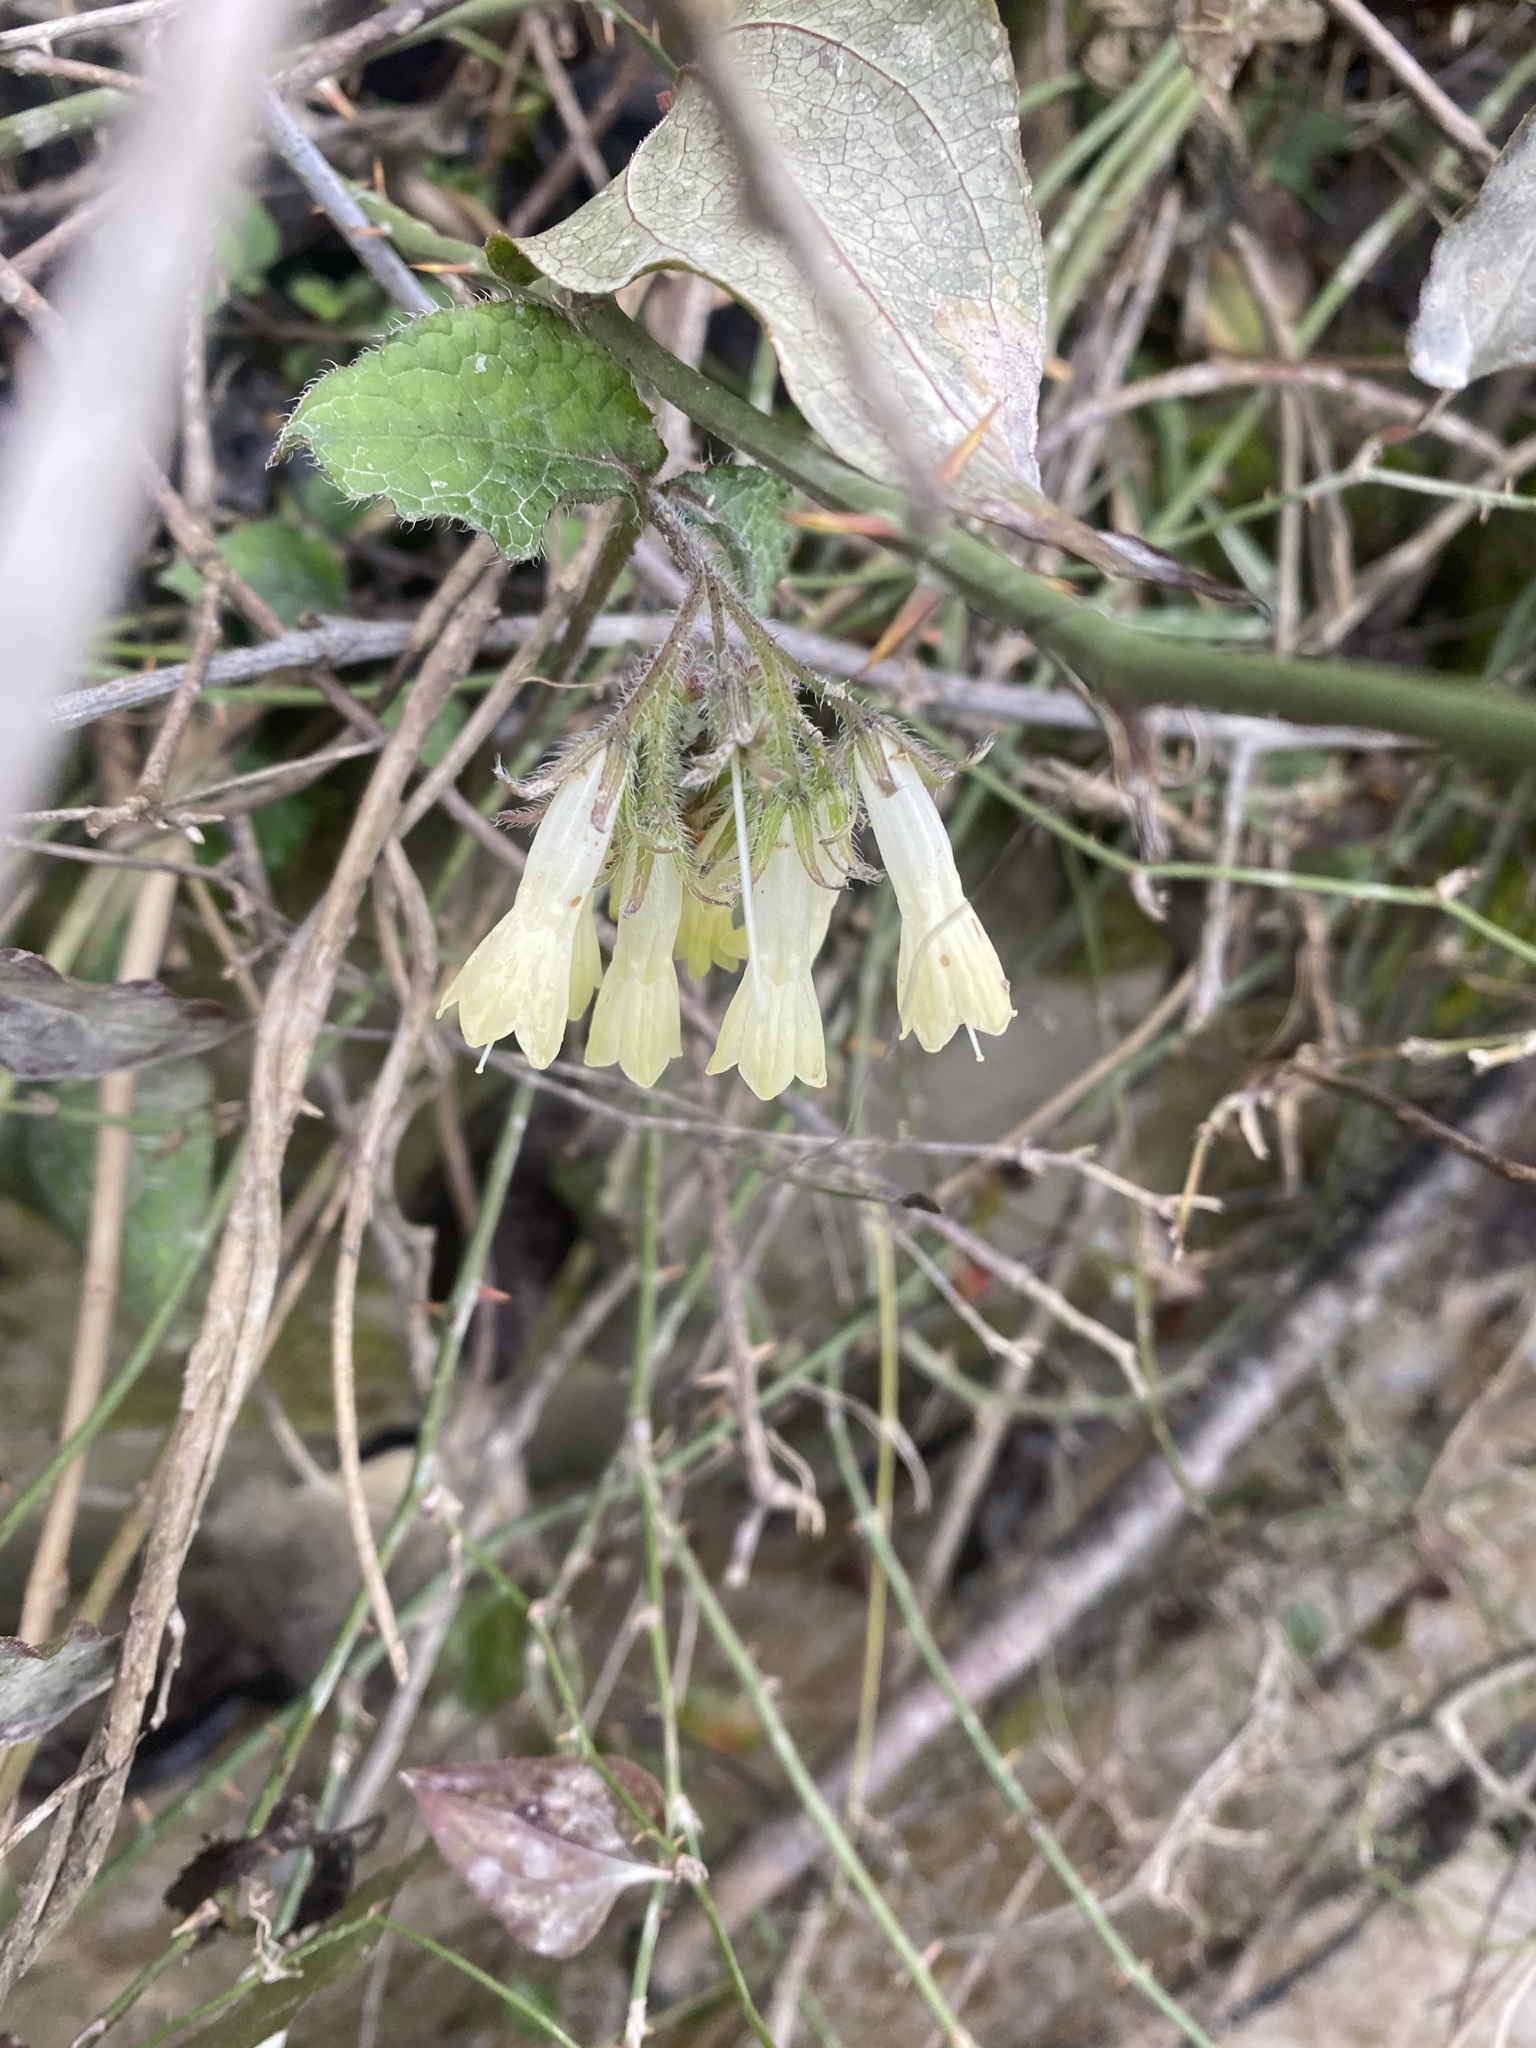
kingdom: Plantae
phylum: Tracheophyta
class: Magnoliopsida
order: Boraginales
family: Boraginaceae
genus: Symphytum
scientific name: Symphytum grandiflorum
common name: Creeping comfrey
